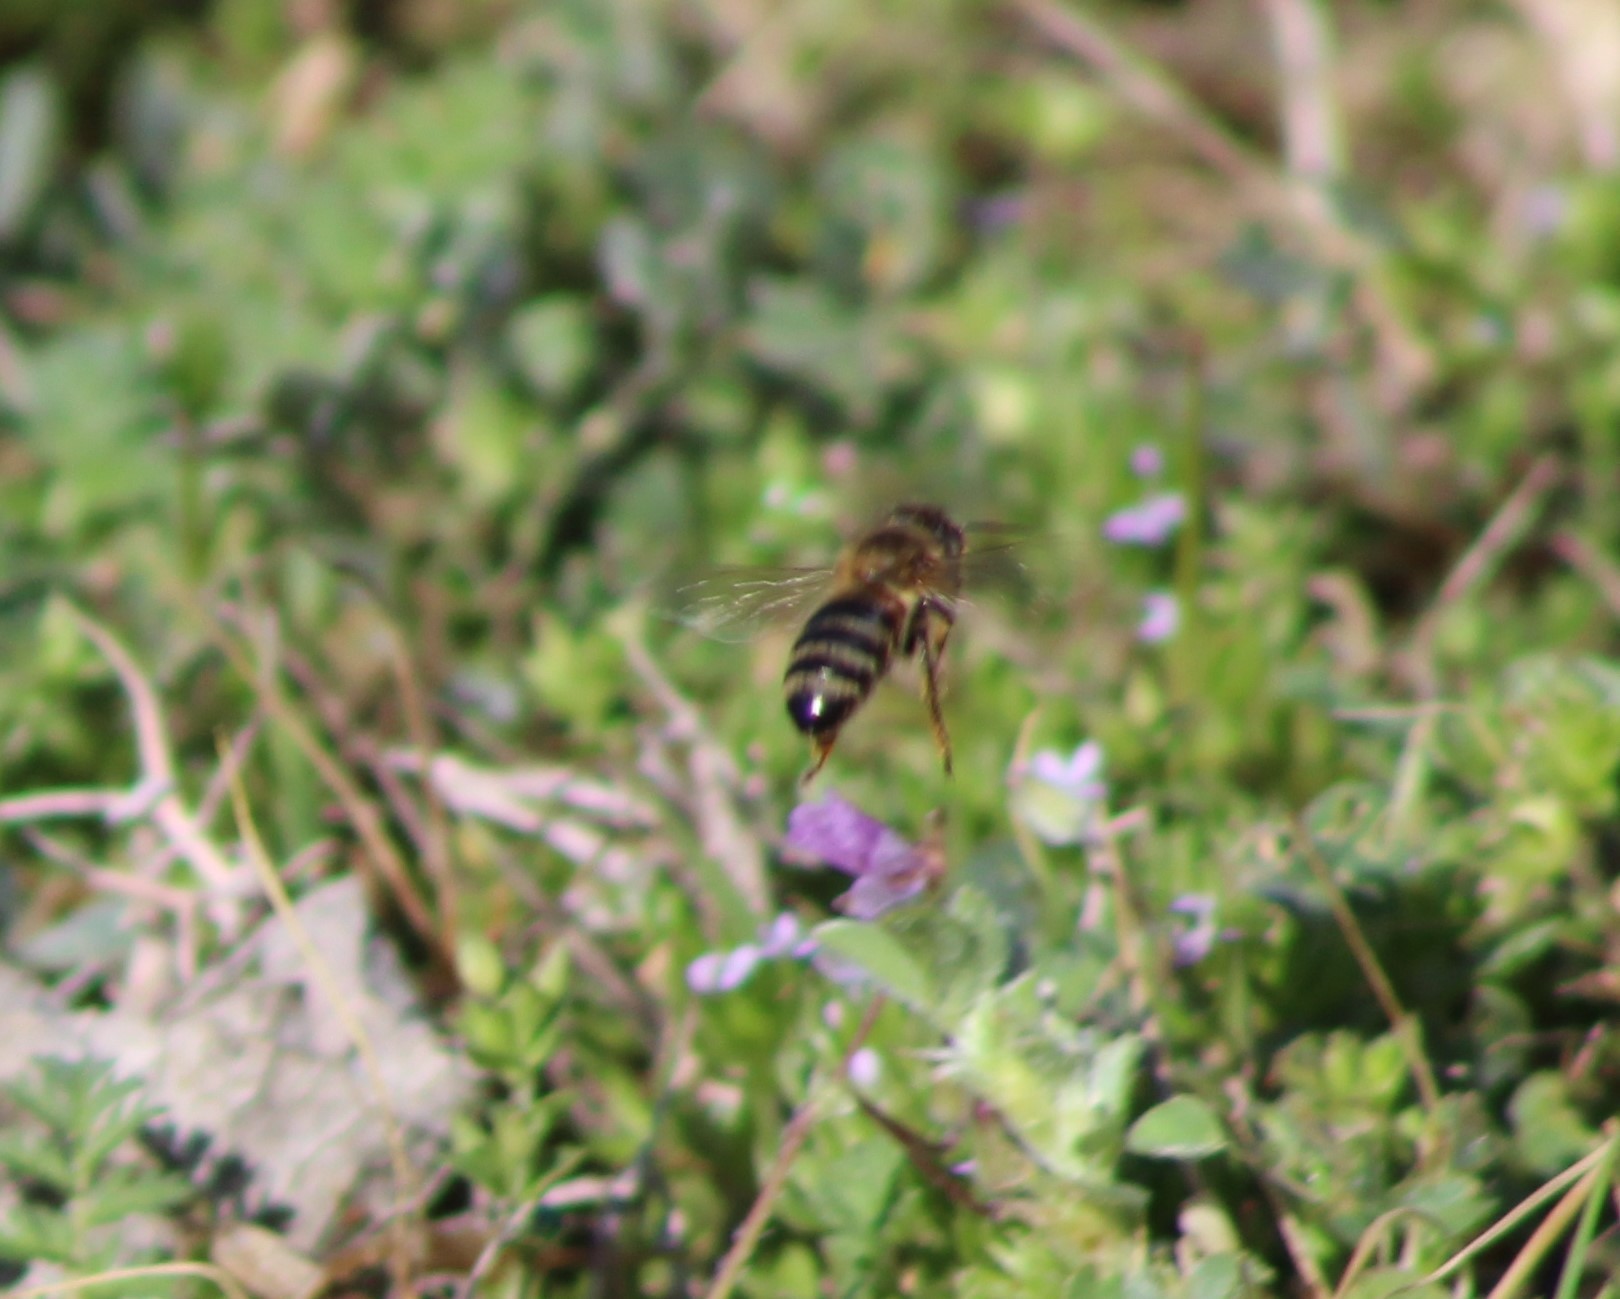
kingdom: Animalia
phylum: Arthropoda
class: Insecta
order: Hymenoptera
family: Apidae
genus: Apis
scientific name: Apis mellifera
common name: Honey bee
